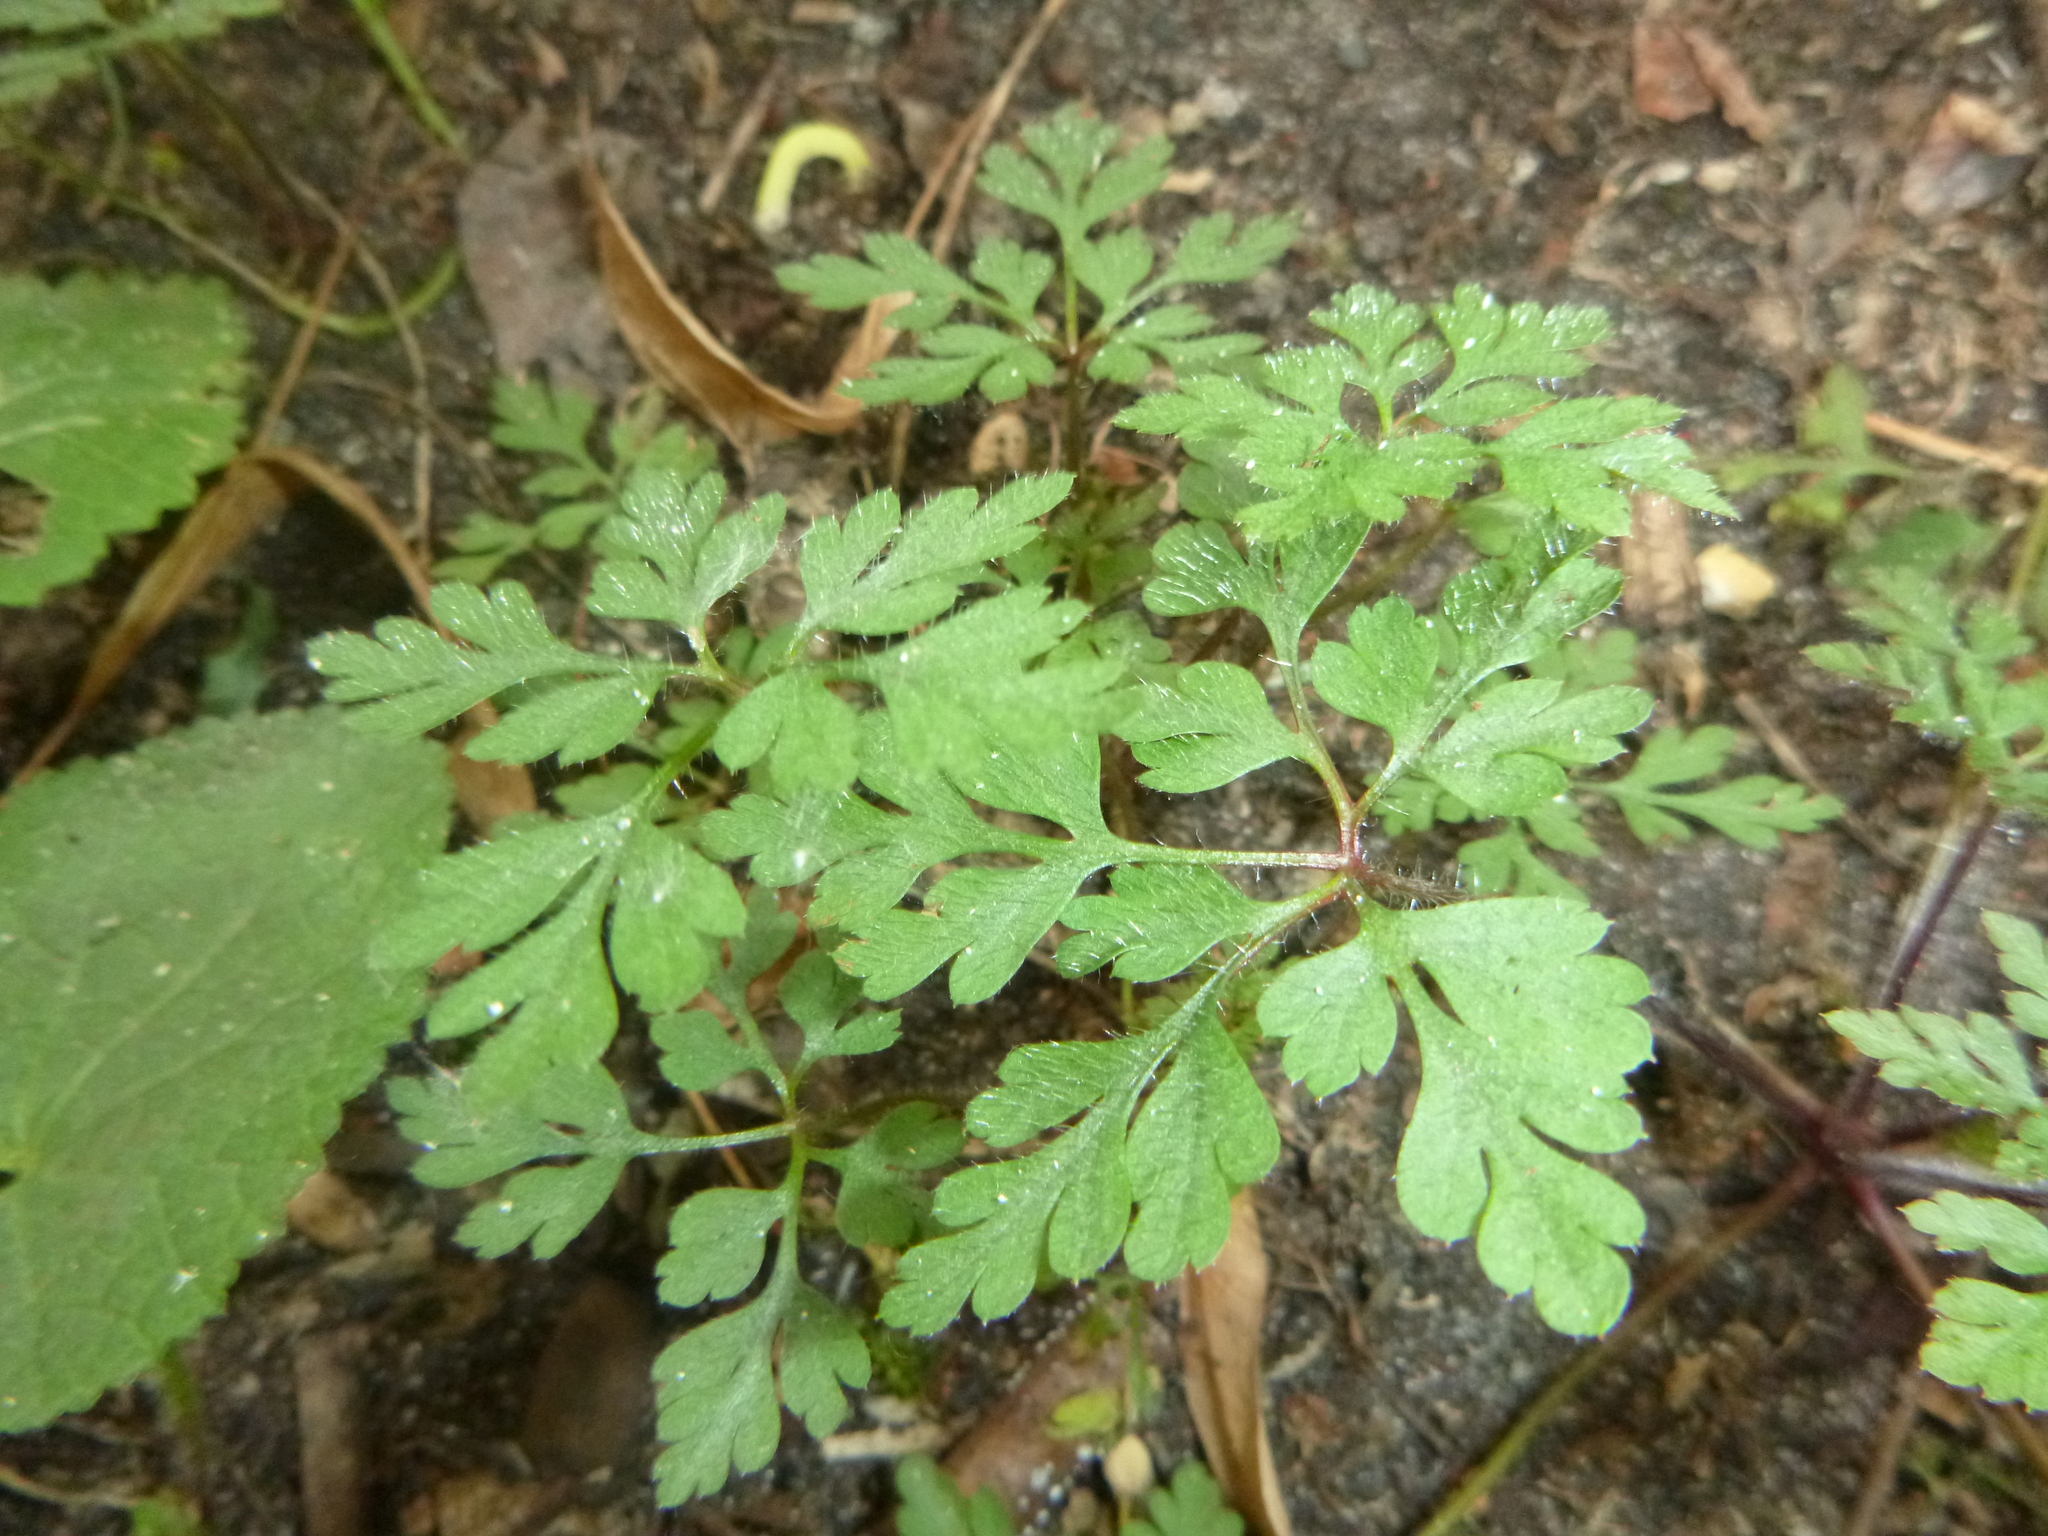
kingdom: Plantae
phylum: Tracheophyta
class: Magnoliopsida
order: Geraniales
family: Geraniaceae
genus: Geranium
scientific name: Geranium robertianum
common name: Herb-robert
